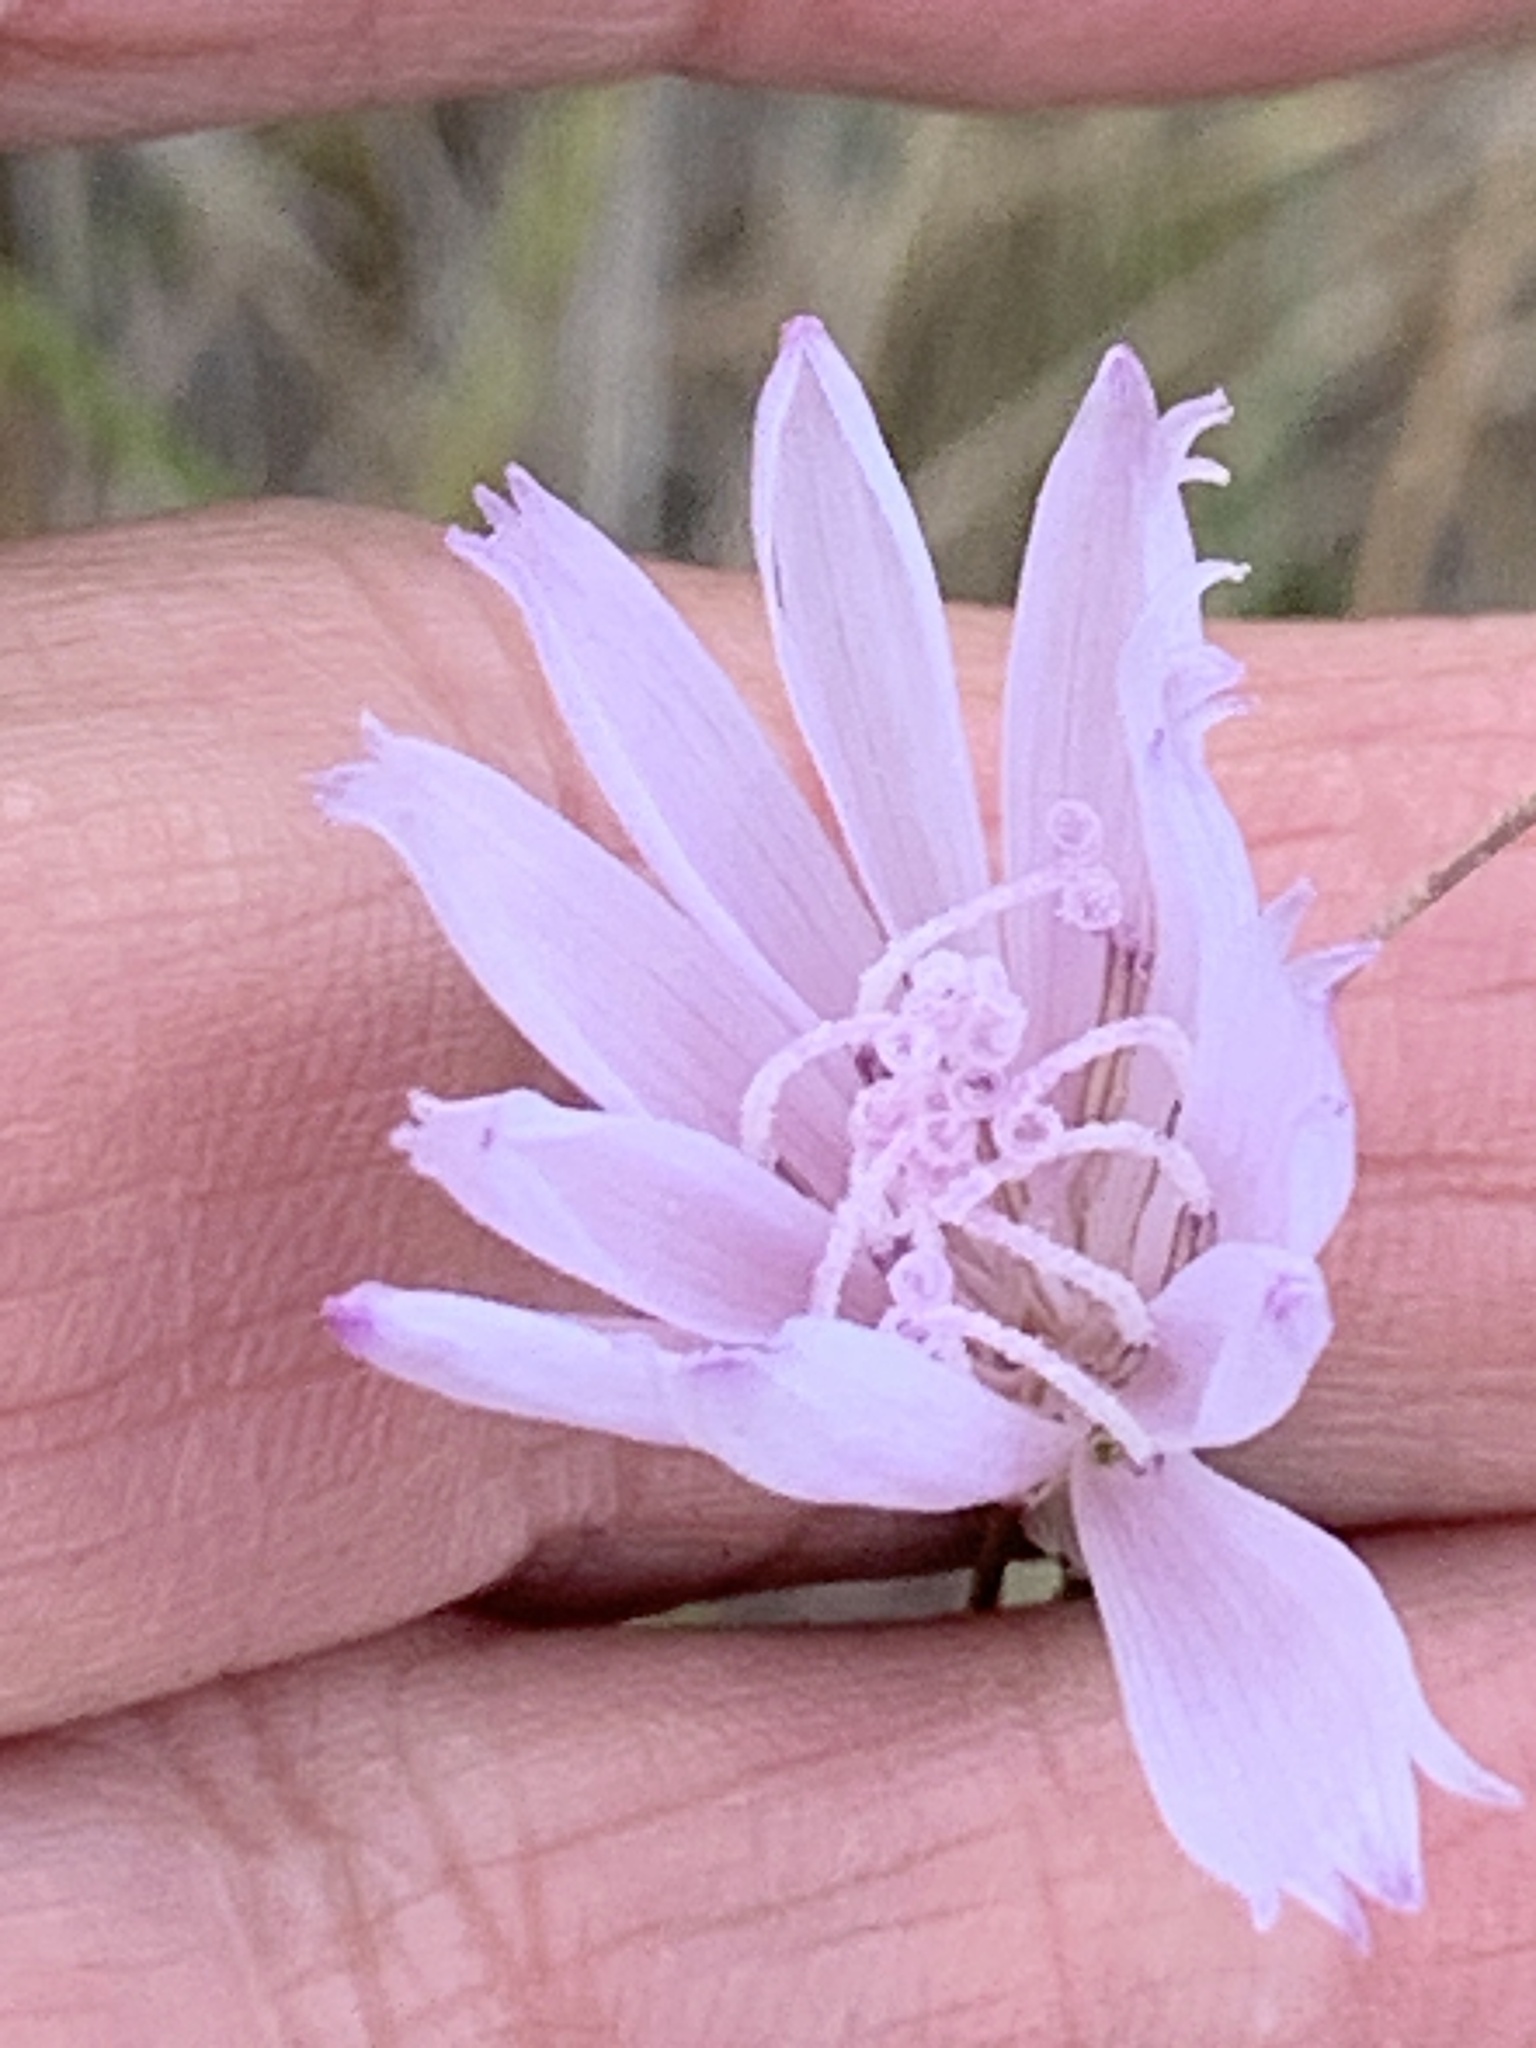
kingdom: Plantae
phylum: Tracheophyta
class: Magnoliopsida
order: Asterales
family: Asteraceae
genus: Lygodesmia
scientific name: Lygodesmia aphylla
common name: Rose-rush
